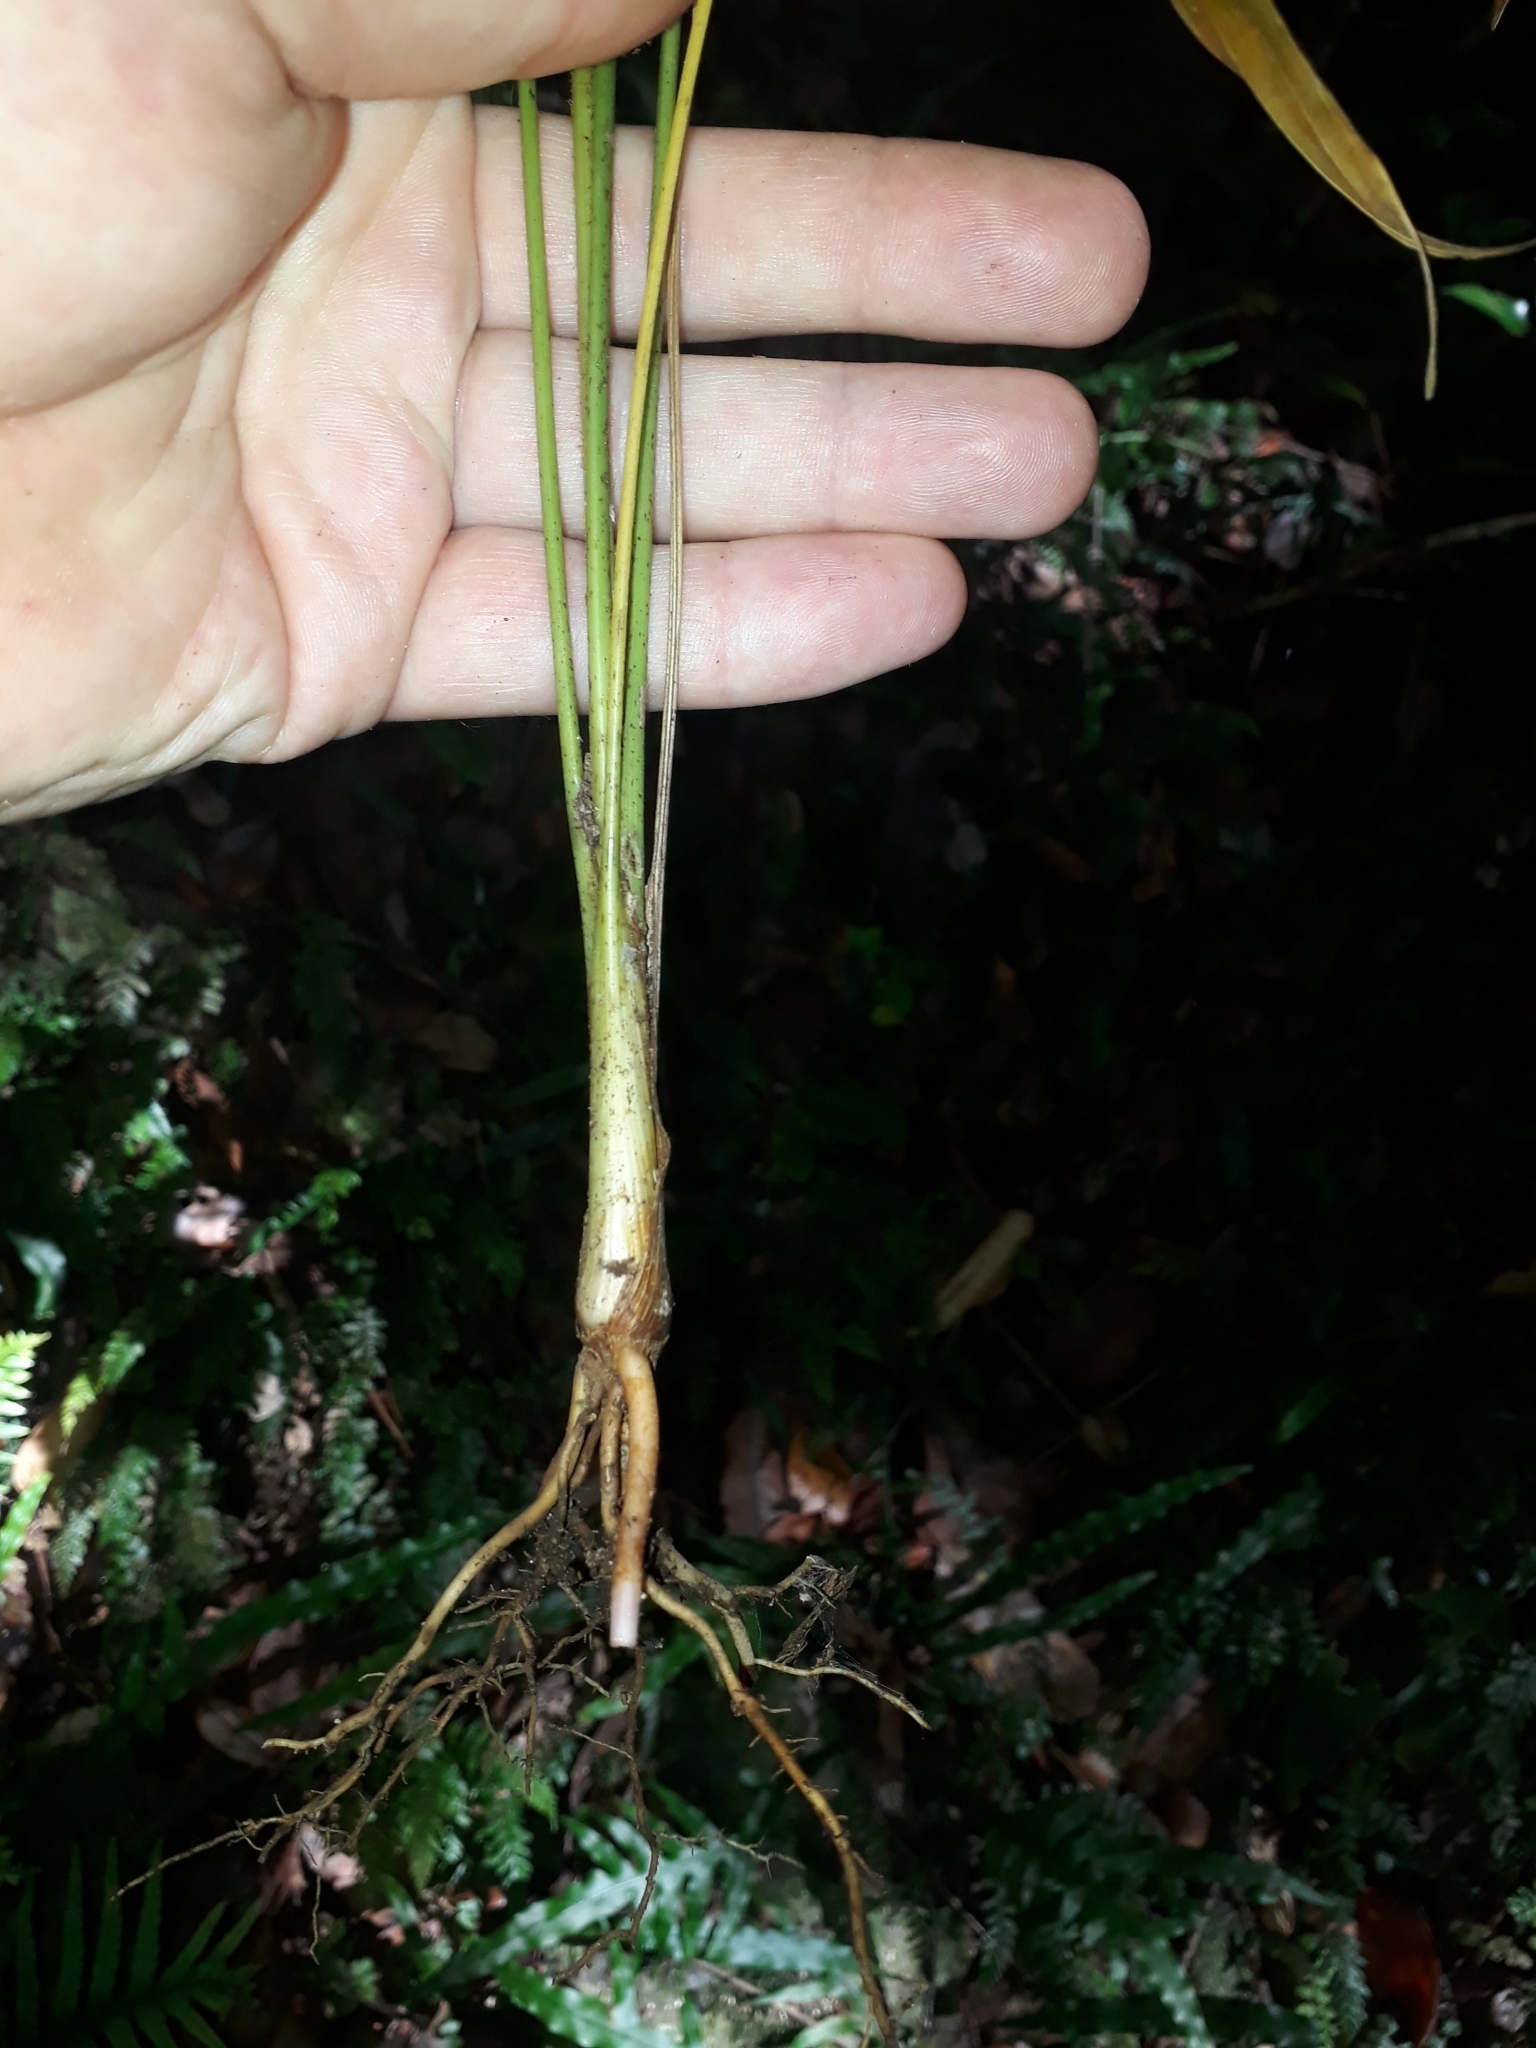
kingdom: Plantae
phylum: Tracheophyta
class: Liliopsida
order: Arecales
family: Arecaceae
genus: Archontophoenix
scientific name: Archontophoenix cunninghamiana
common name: Piccabeen bangalow palm
